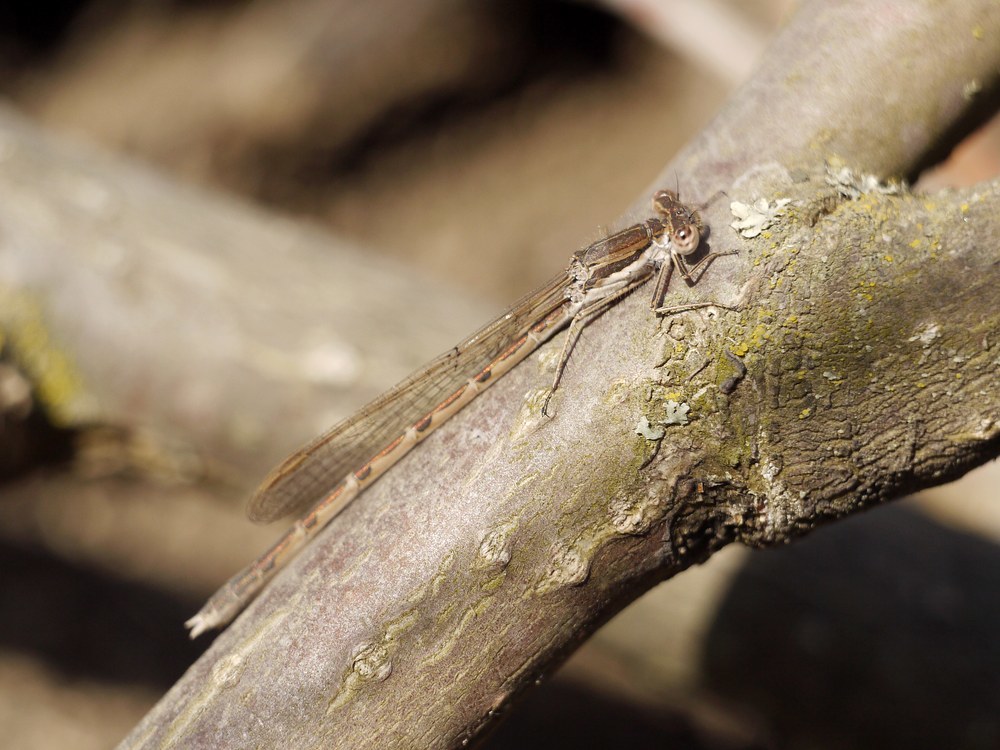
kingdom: Animalia
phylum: Arthropoda
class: Insecta
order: Odonata
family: Lestidae
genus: Sympecma
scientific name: Sympecma fusca
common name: Common winter damsel
